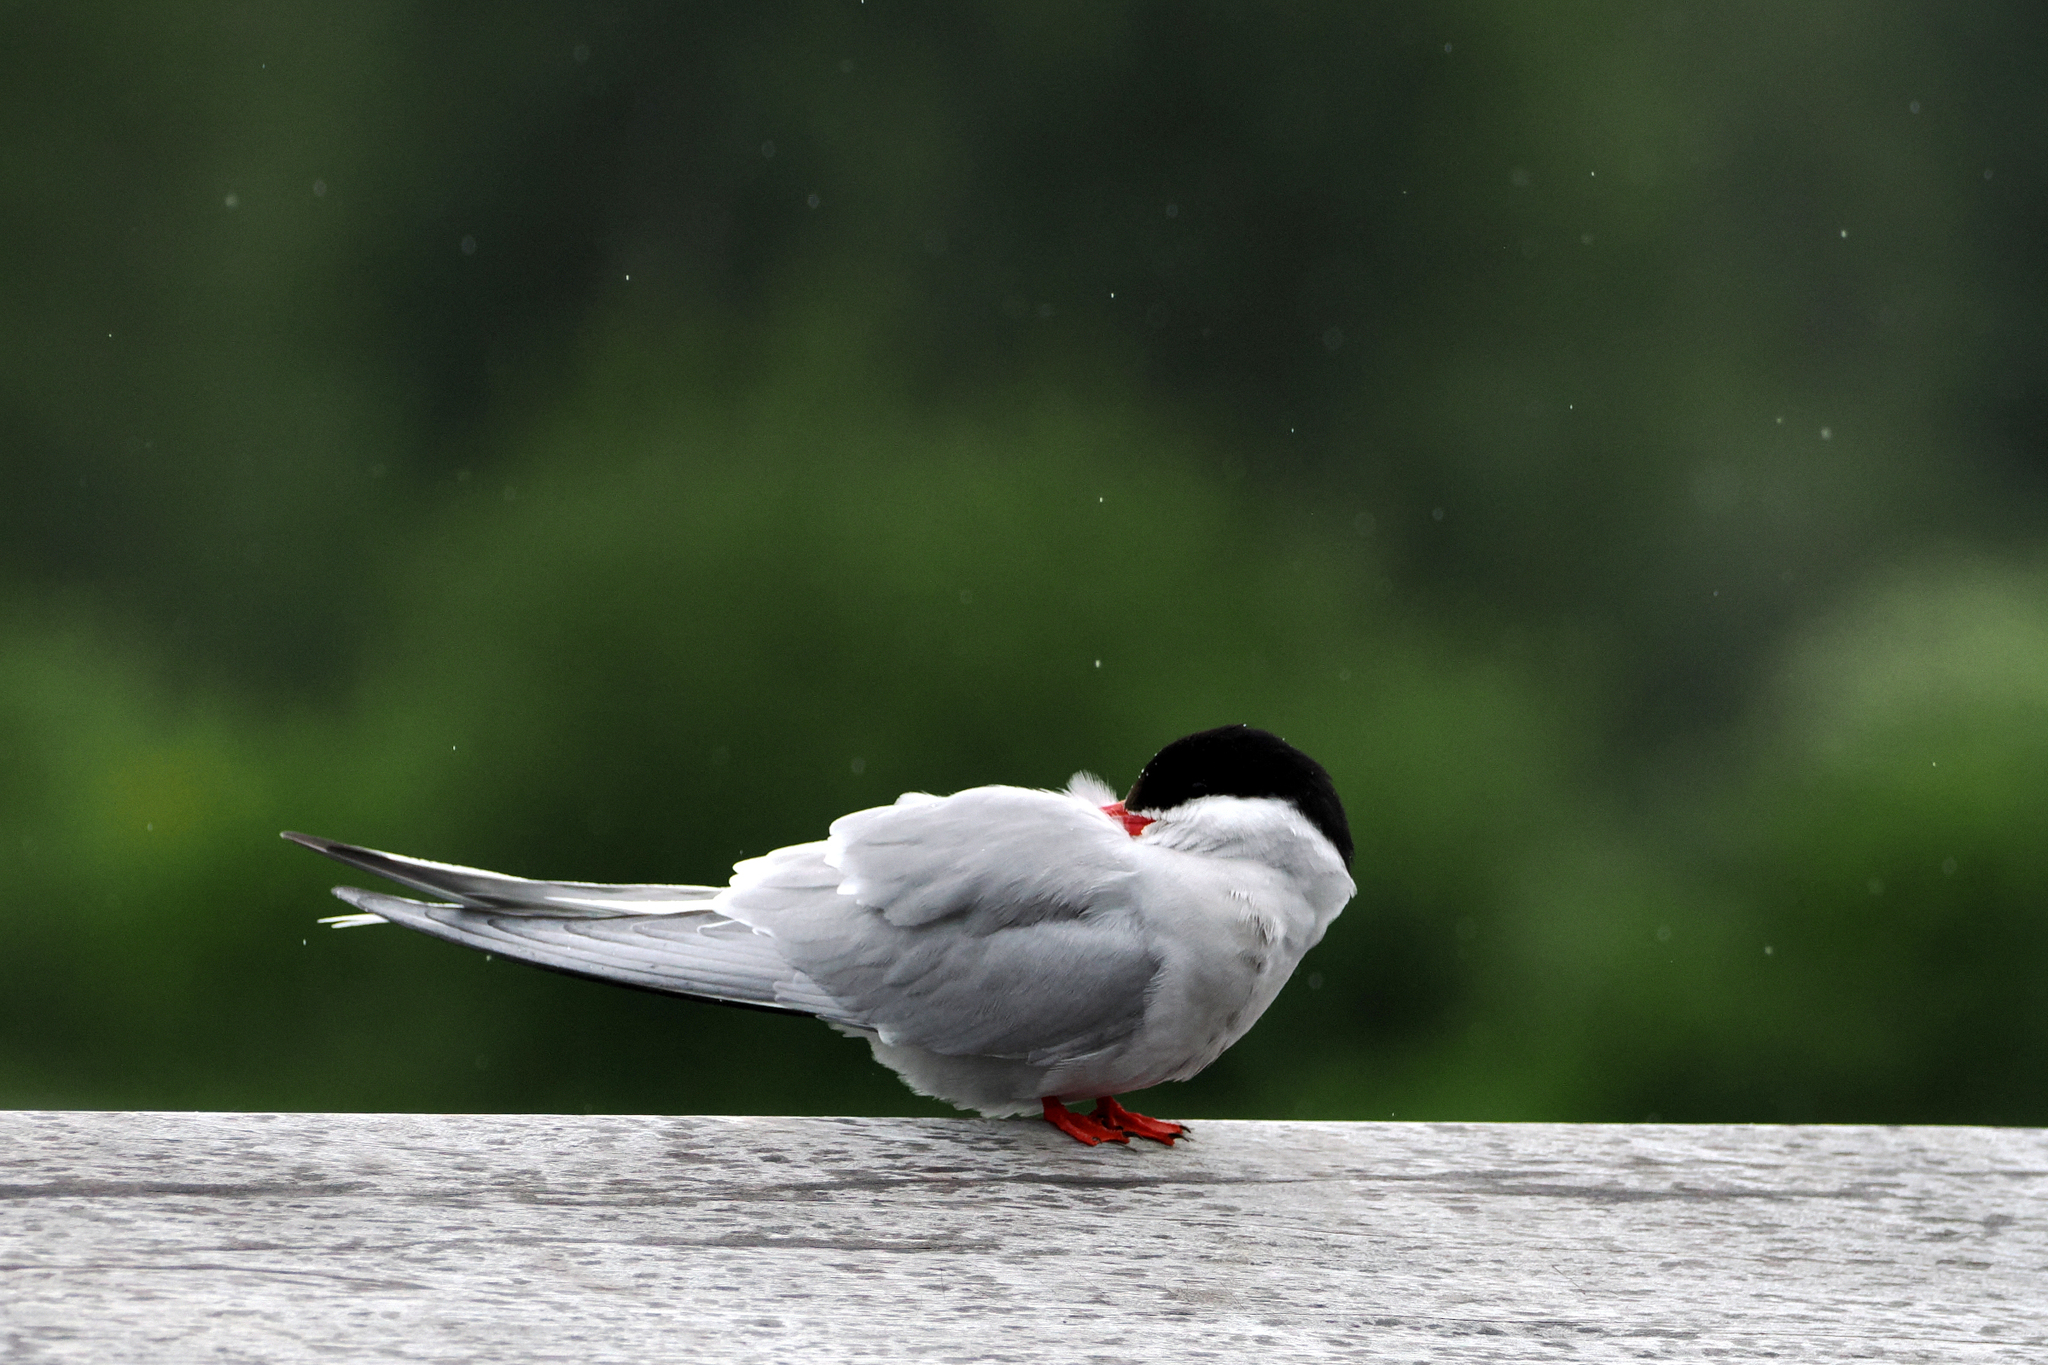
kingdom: Animalia
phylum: Chordata
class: Aves
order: Charadriiformes
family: Laridae
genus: Sterna
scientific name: Sterna paradisaea
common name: Arctic tern
